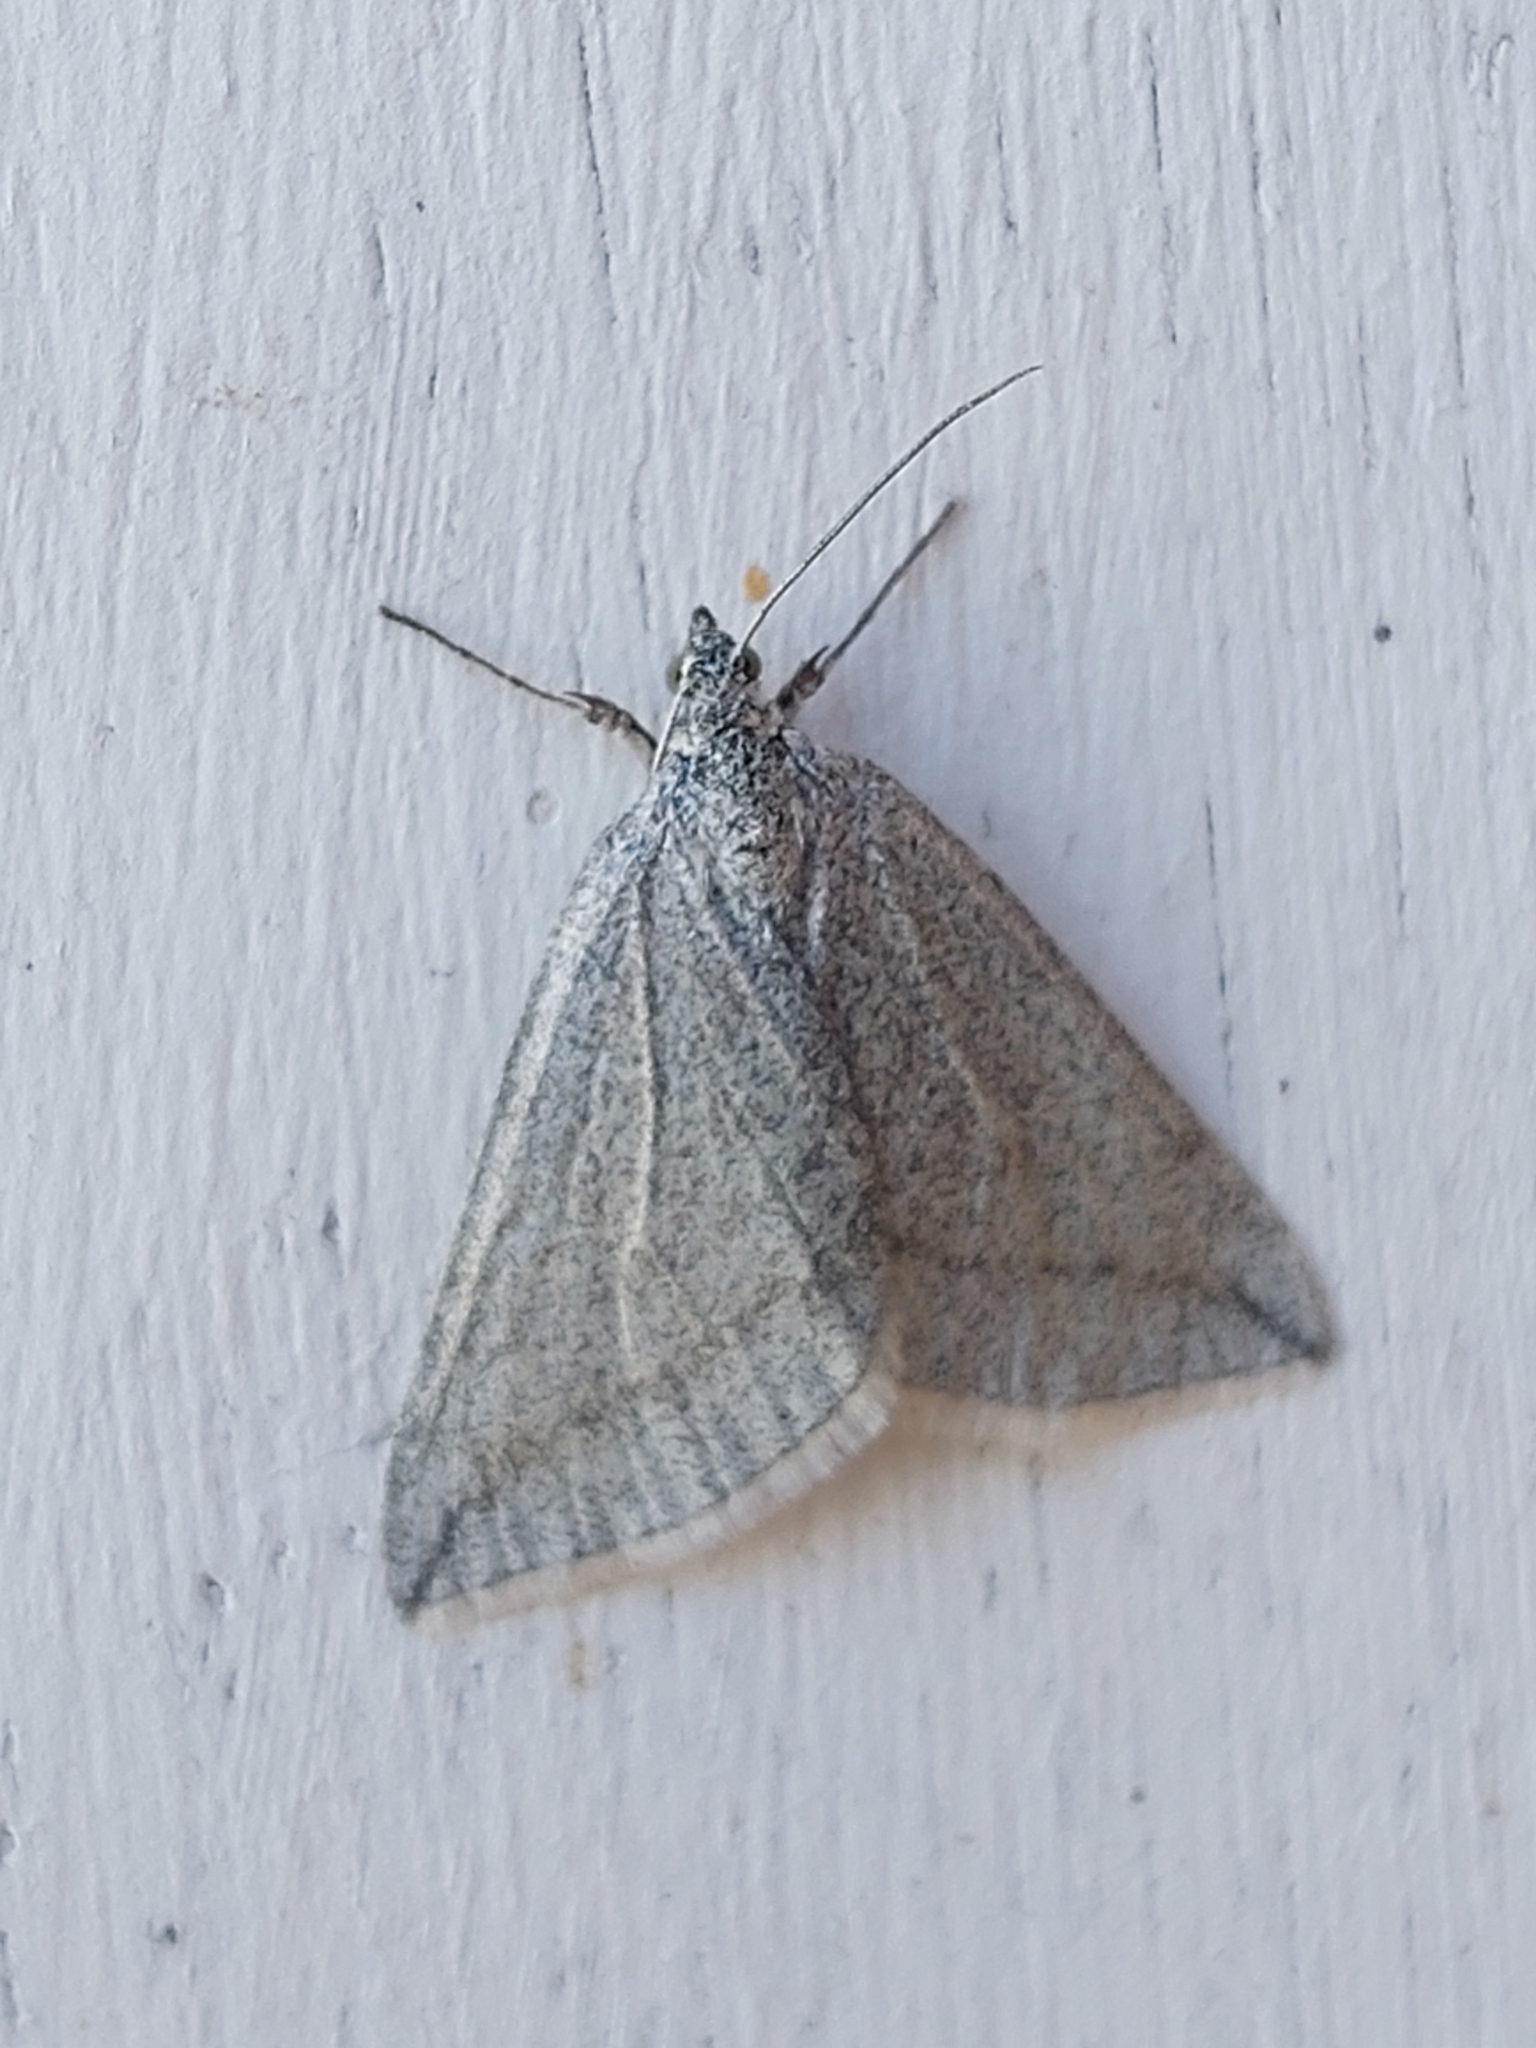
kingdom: Animalia
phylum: Arthropoda
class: Insecta
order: Lepidoptera
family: Geometridae
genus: Lithostege
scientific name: Lithostege griseata
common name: Grey carpet
